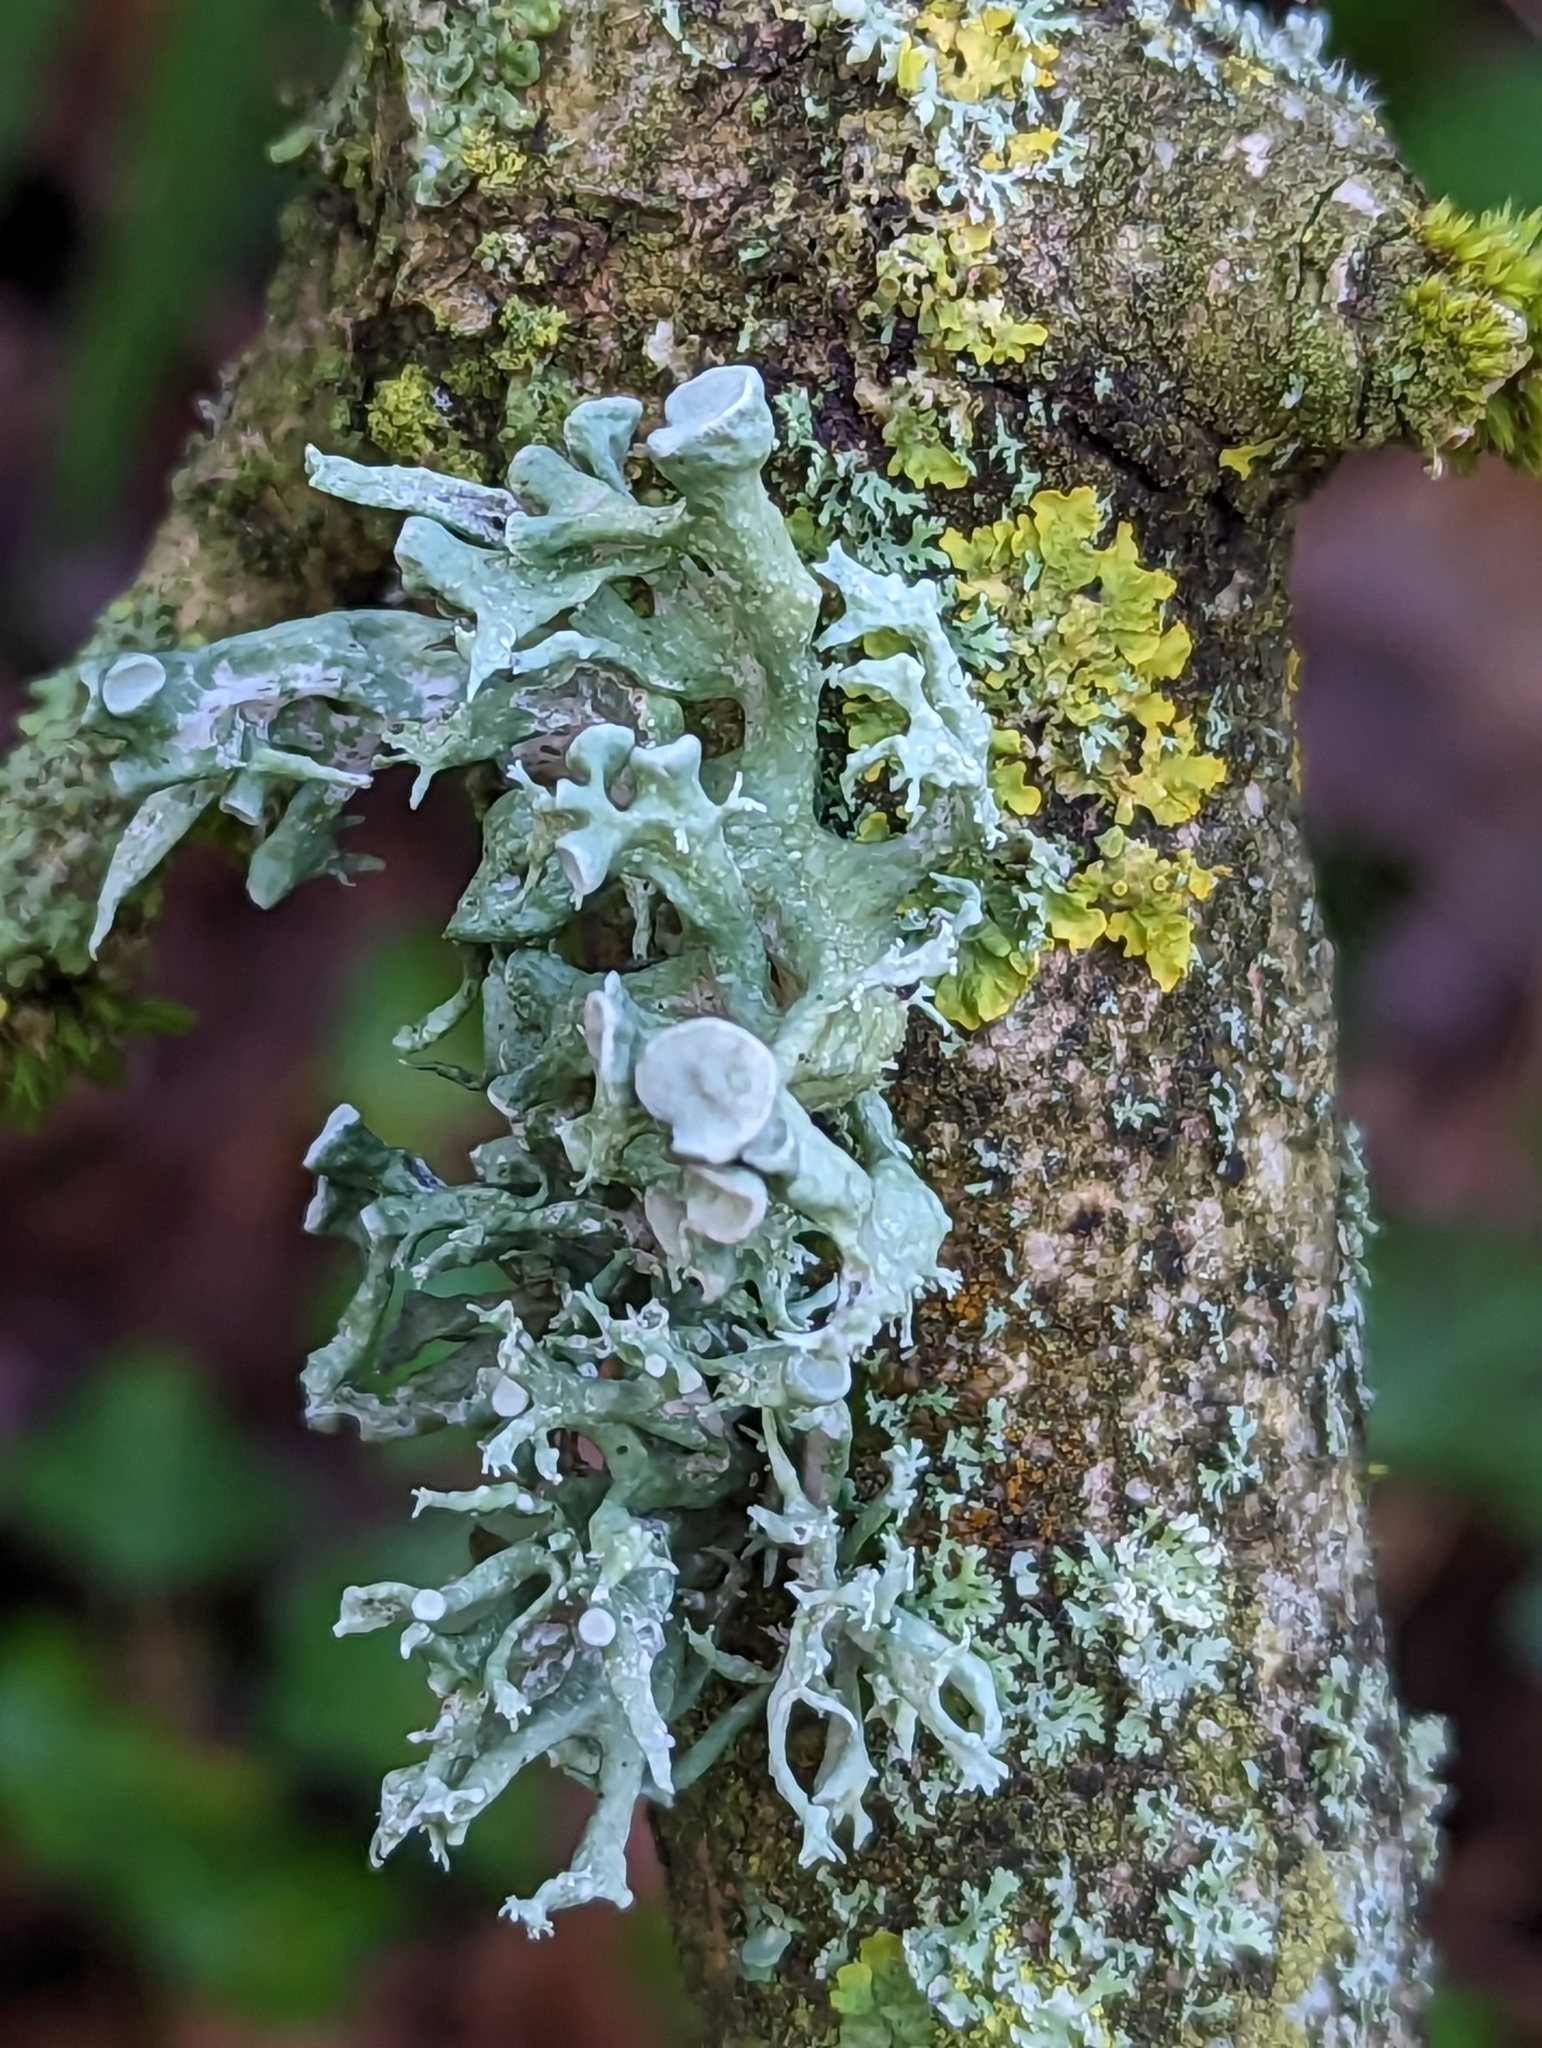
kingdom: Fungi
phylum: Ascomycota
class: Lecanoromycetes
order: Lecanorales
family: Ramalinaceae
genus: Ramalina
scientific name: Ramalina fastigiata
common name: Dotted ribbon lichen
